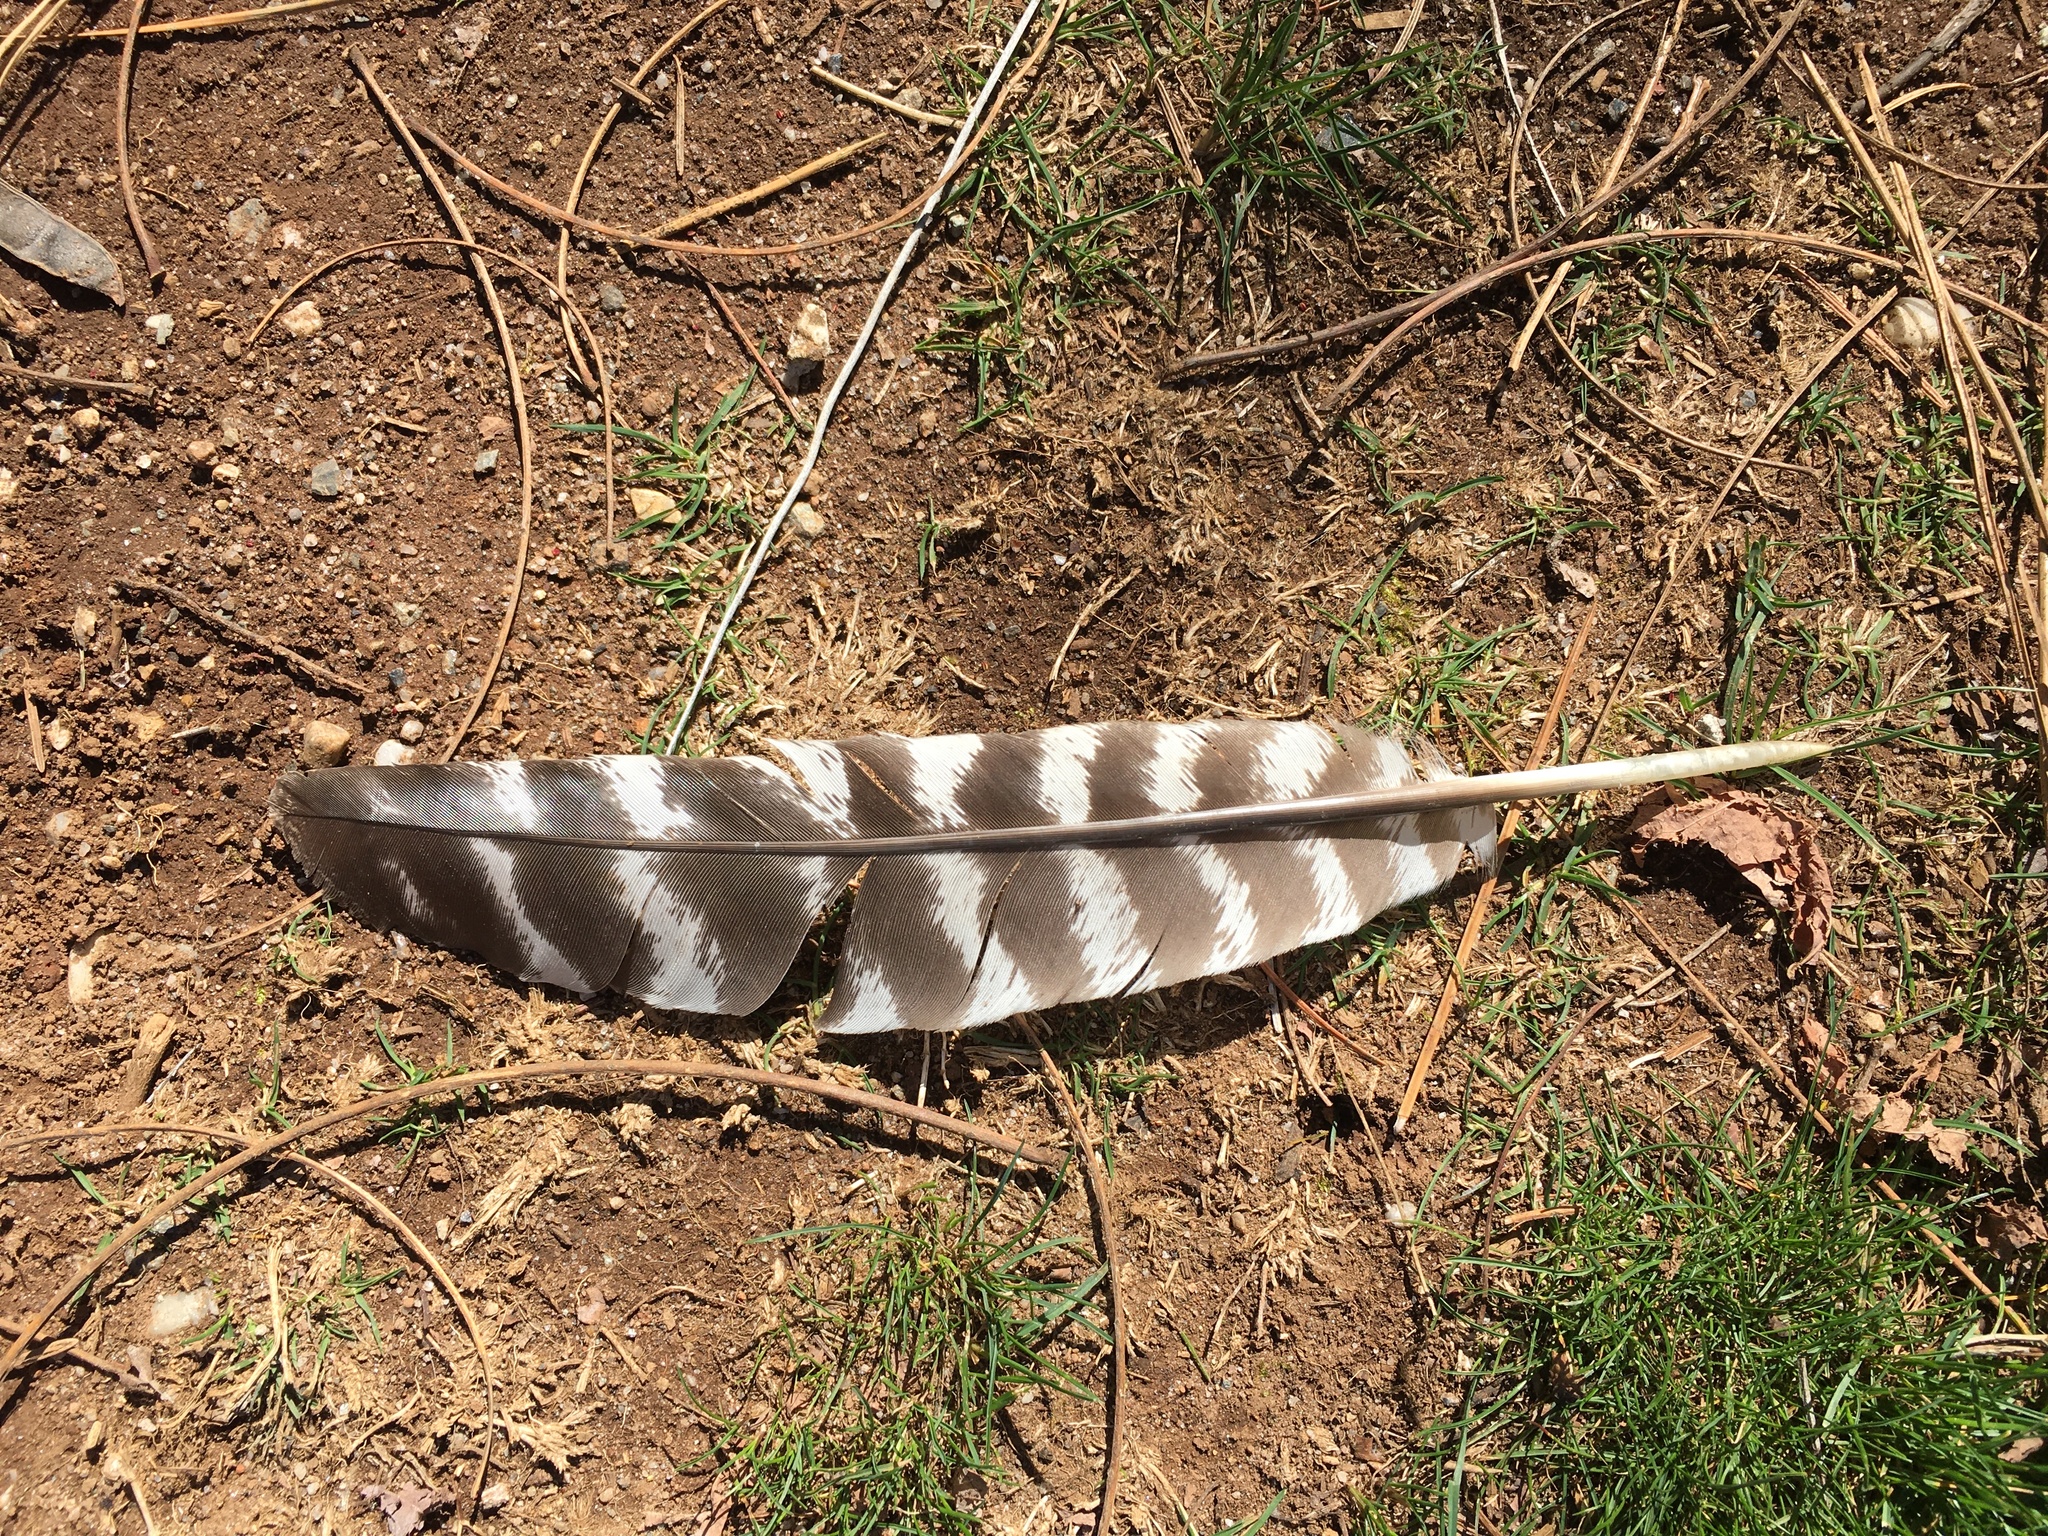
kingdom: Animalia
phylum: Chordata
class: Aves
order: Galliformes
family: Phasianidae
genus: Meleagris
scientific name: Meleagris gallopavo
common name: Wild turkey
